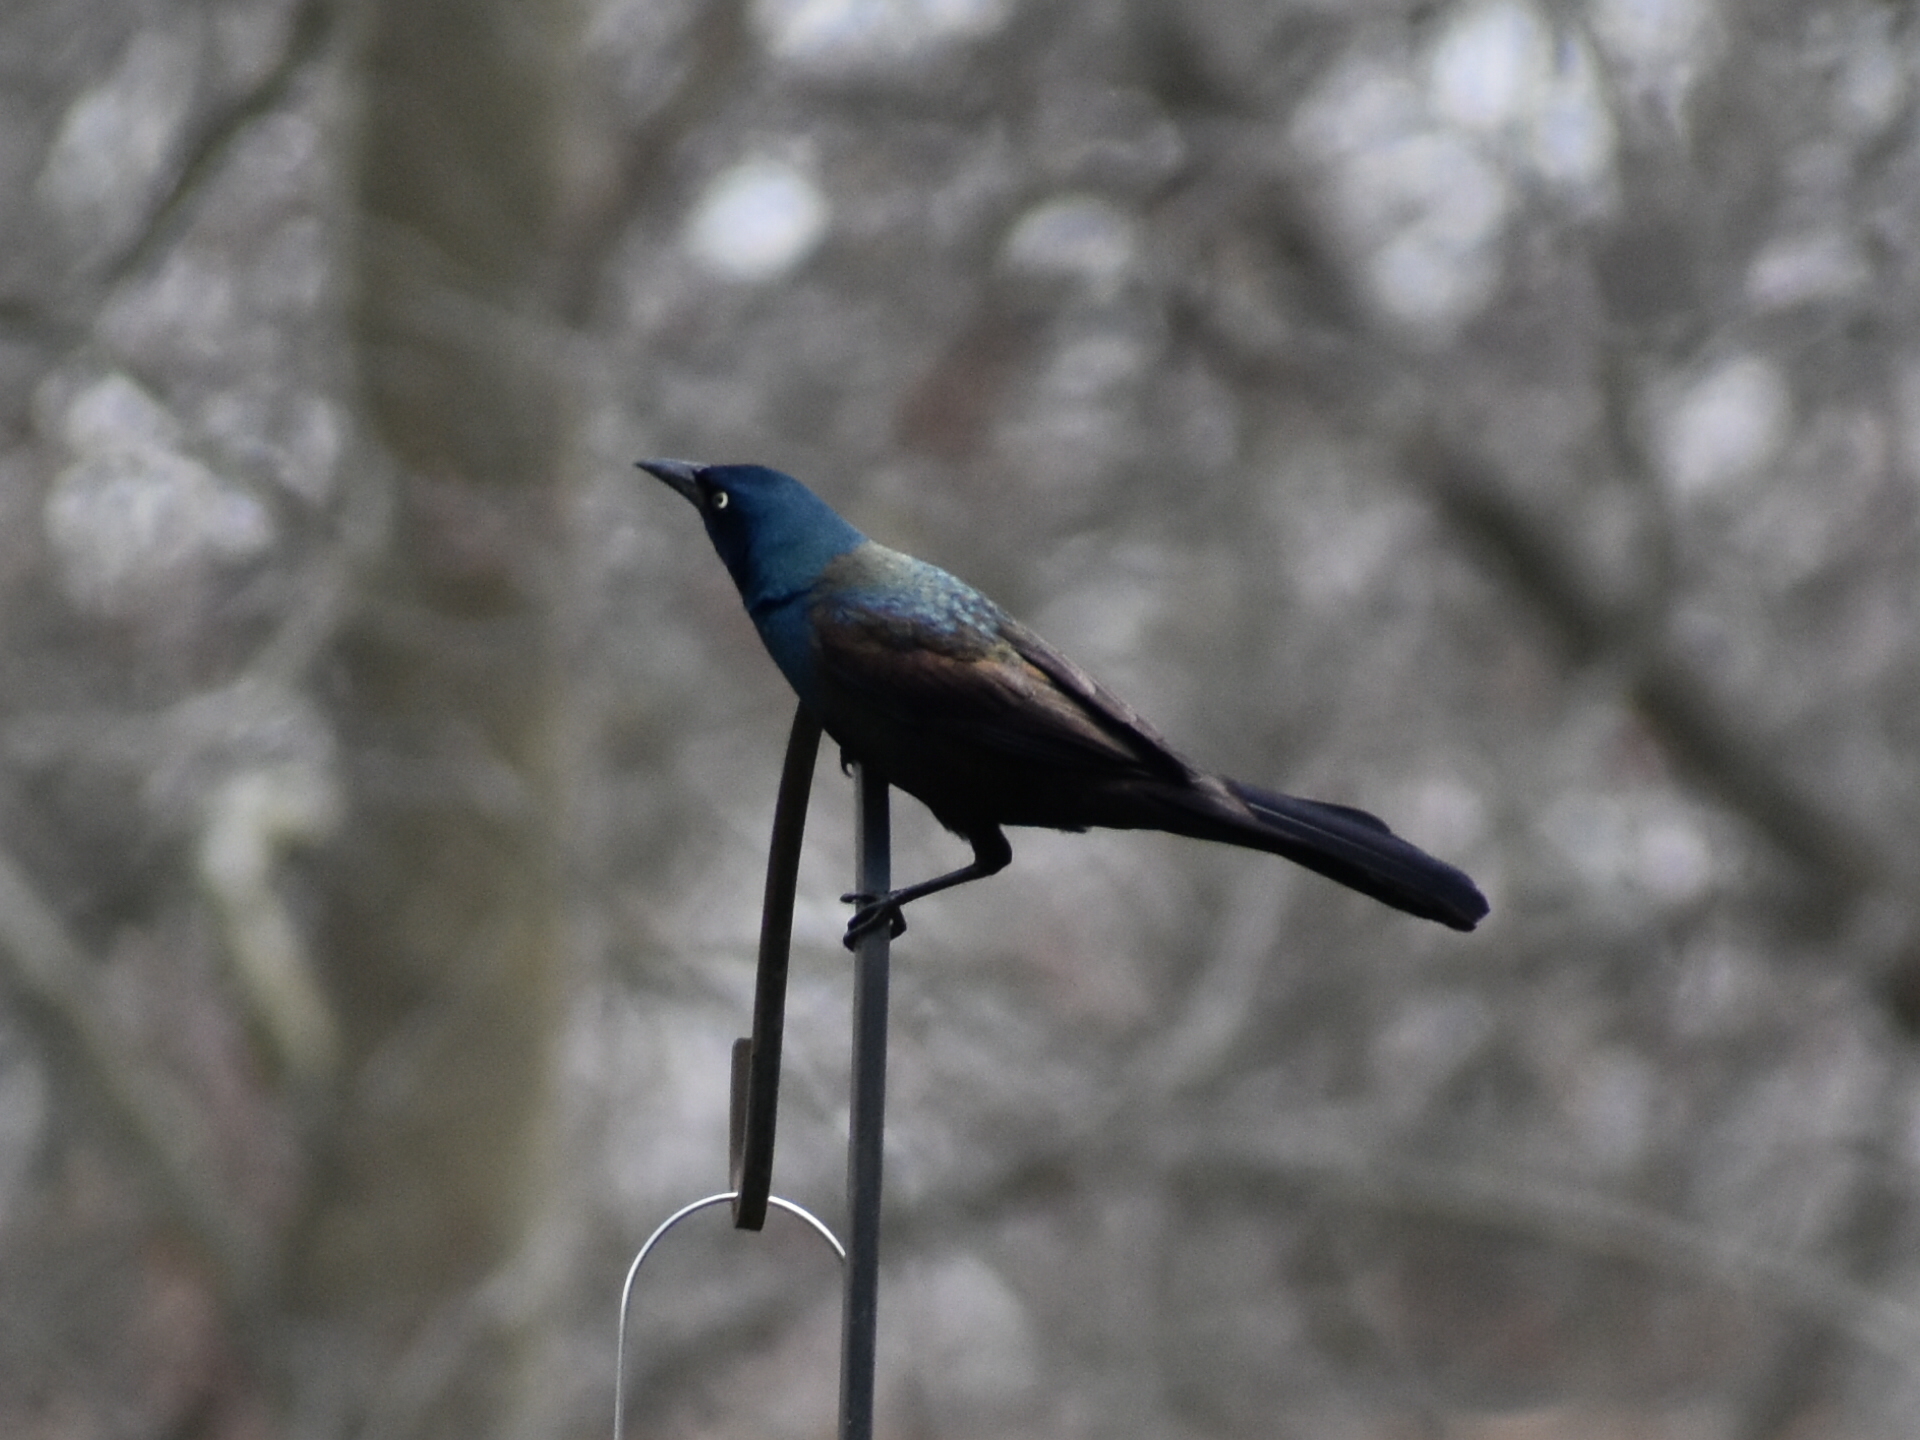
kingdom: Animalia
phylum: Chordata
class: Aves
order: Passeriformes
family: Icteridae
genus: Quiscalus
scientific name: Quiscalus quiscula
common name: Common grackle
